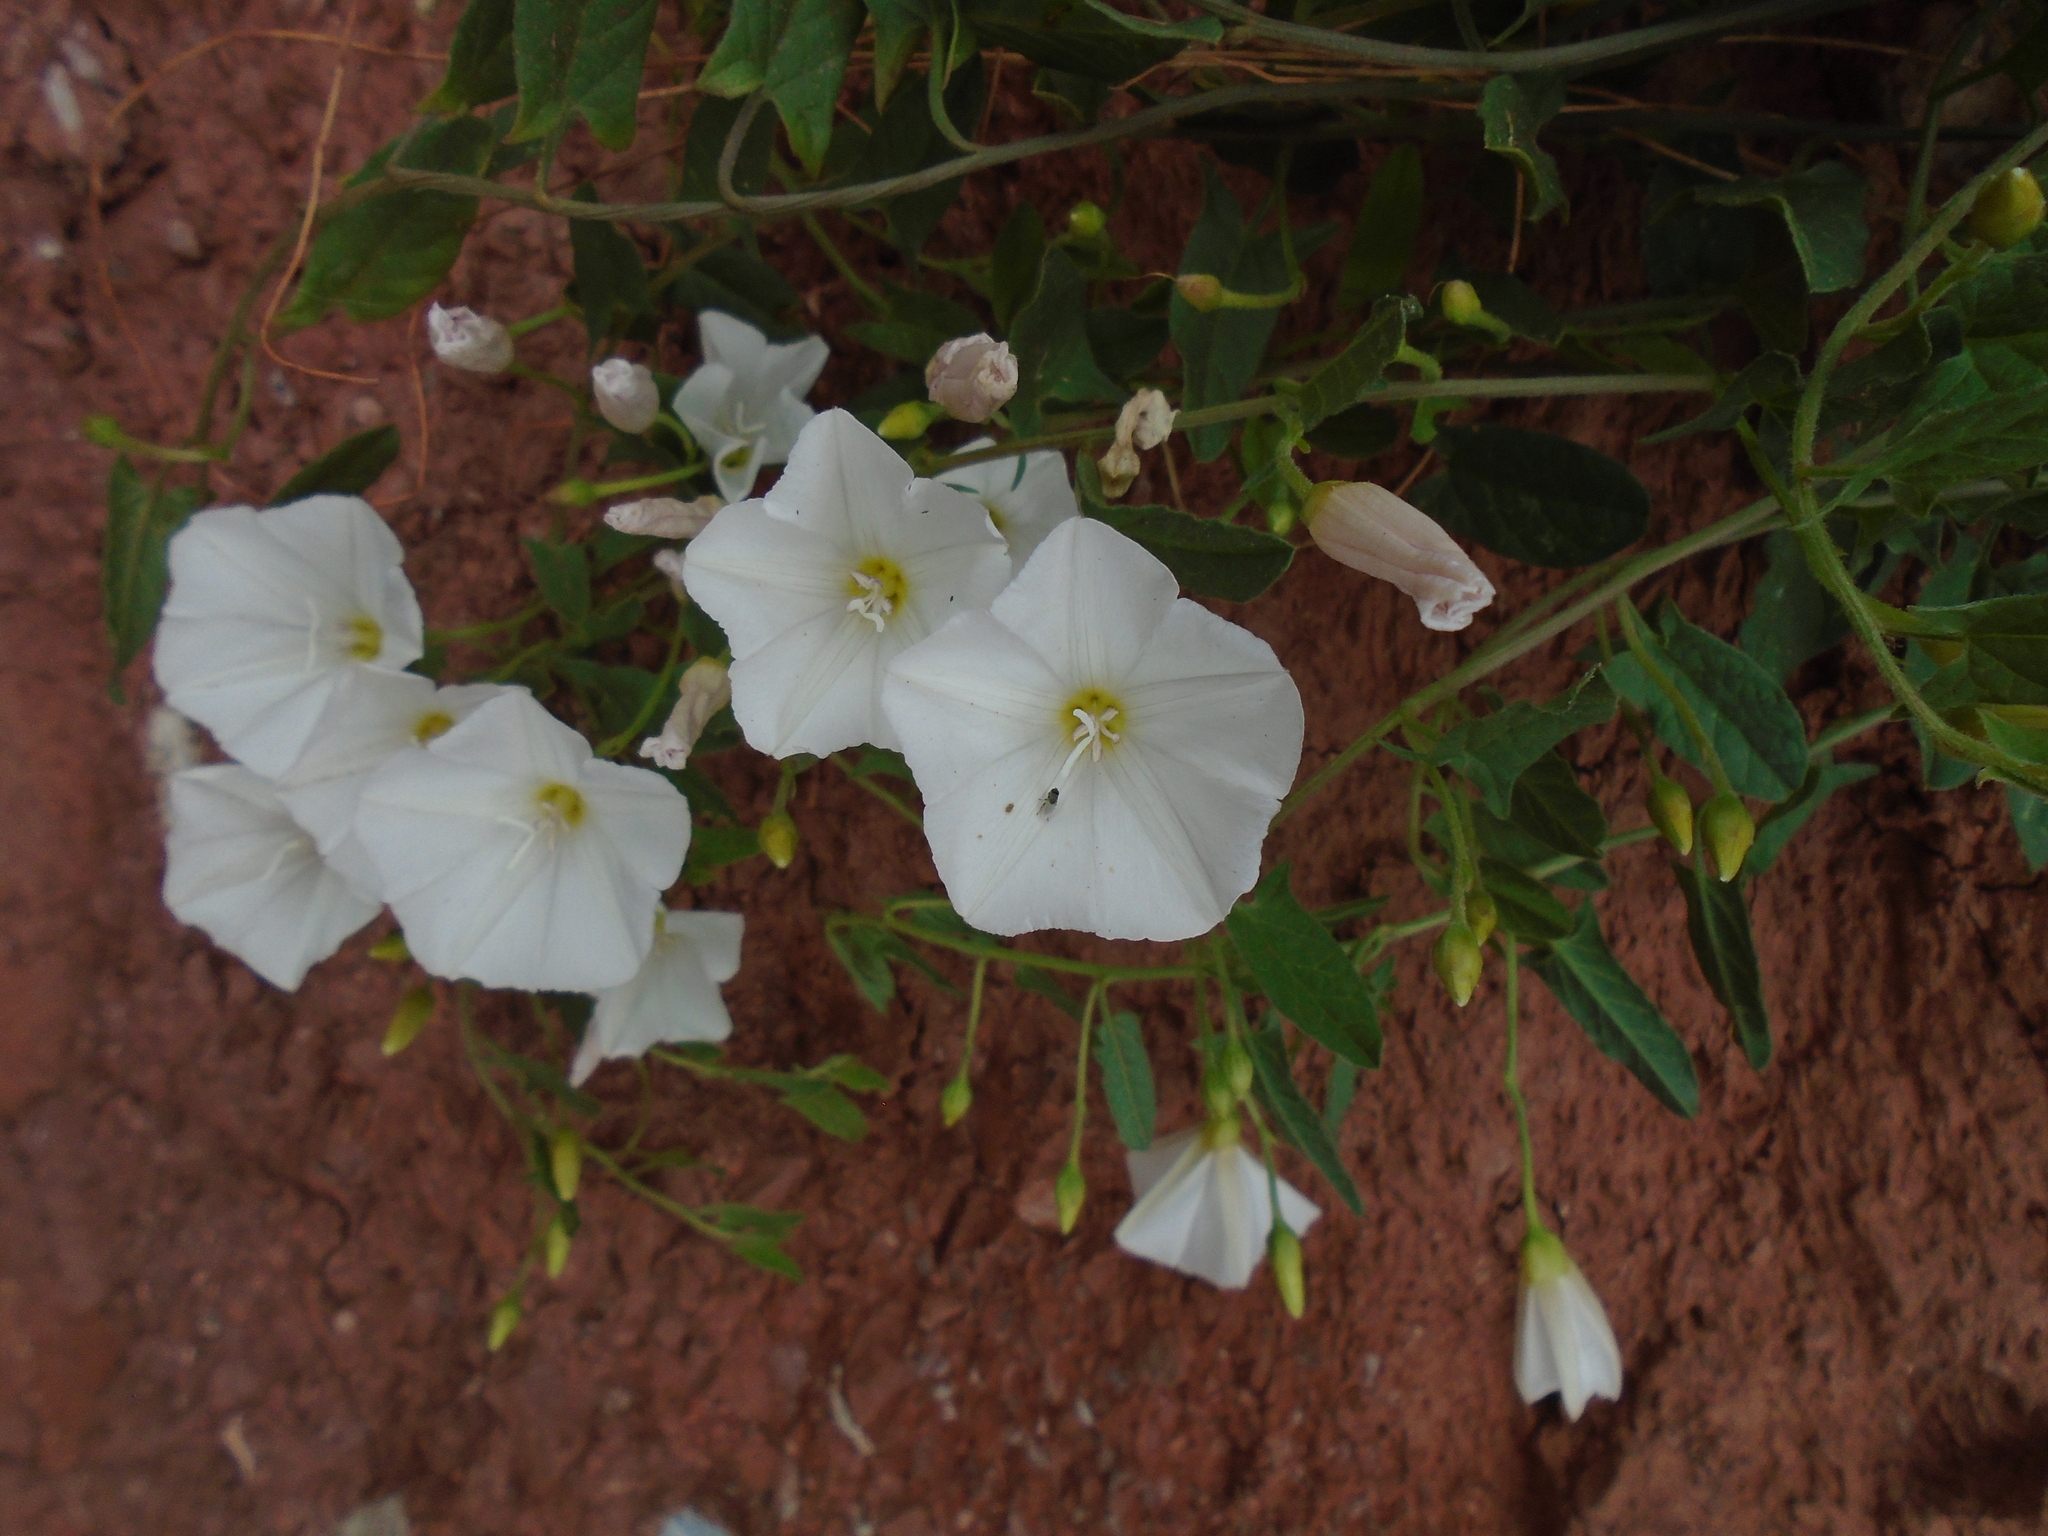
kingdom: Plantae
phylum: Tracheophyta
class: Magnoliopsida
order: Solanales
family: Convolvulaceae
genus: Convolvulus
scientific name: Convolvulus arvensis
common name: Field bindweed
